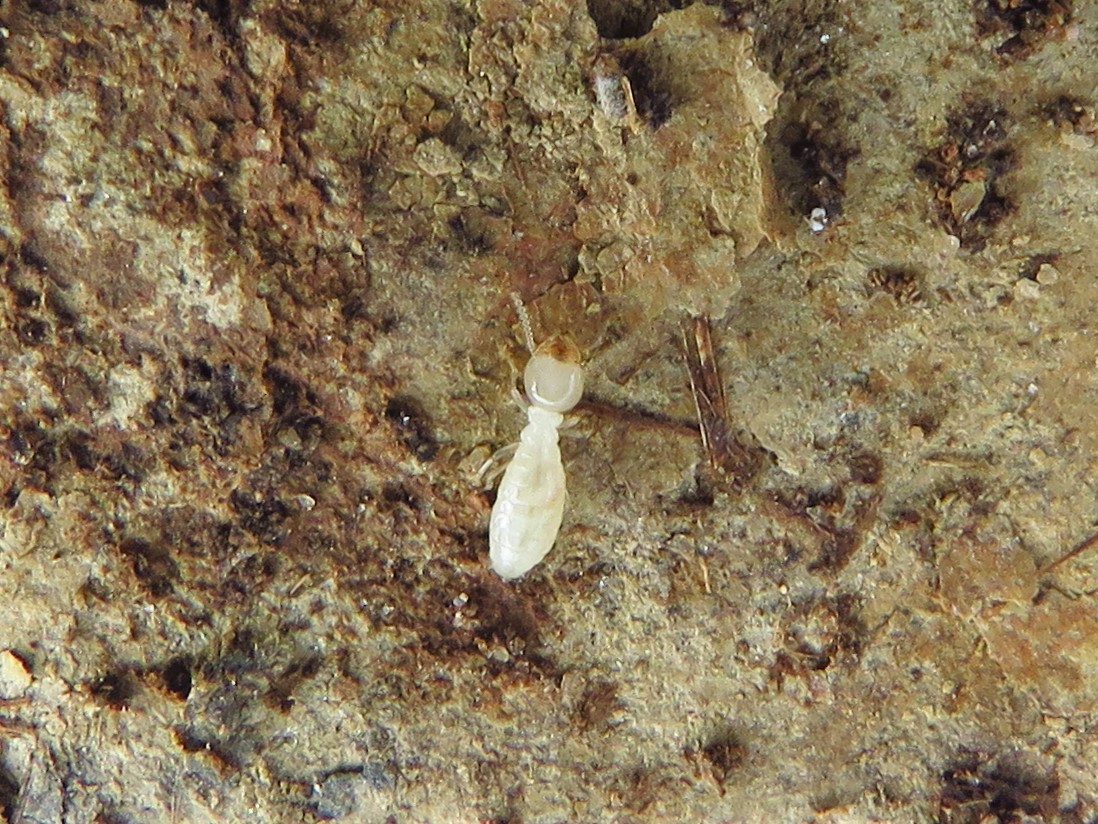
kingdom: Animalia
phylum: Arthropoda
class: Insecta
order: Blattodea
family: Rhinotermitidae
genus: Reticulitermes
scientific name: Reticulitermes flavipes
